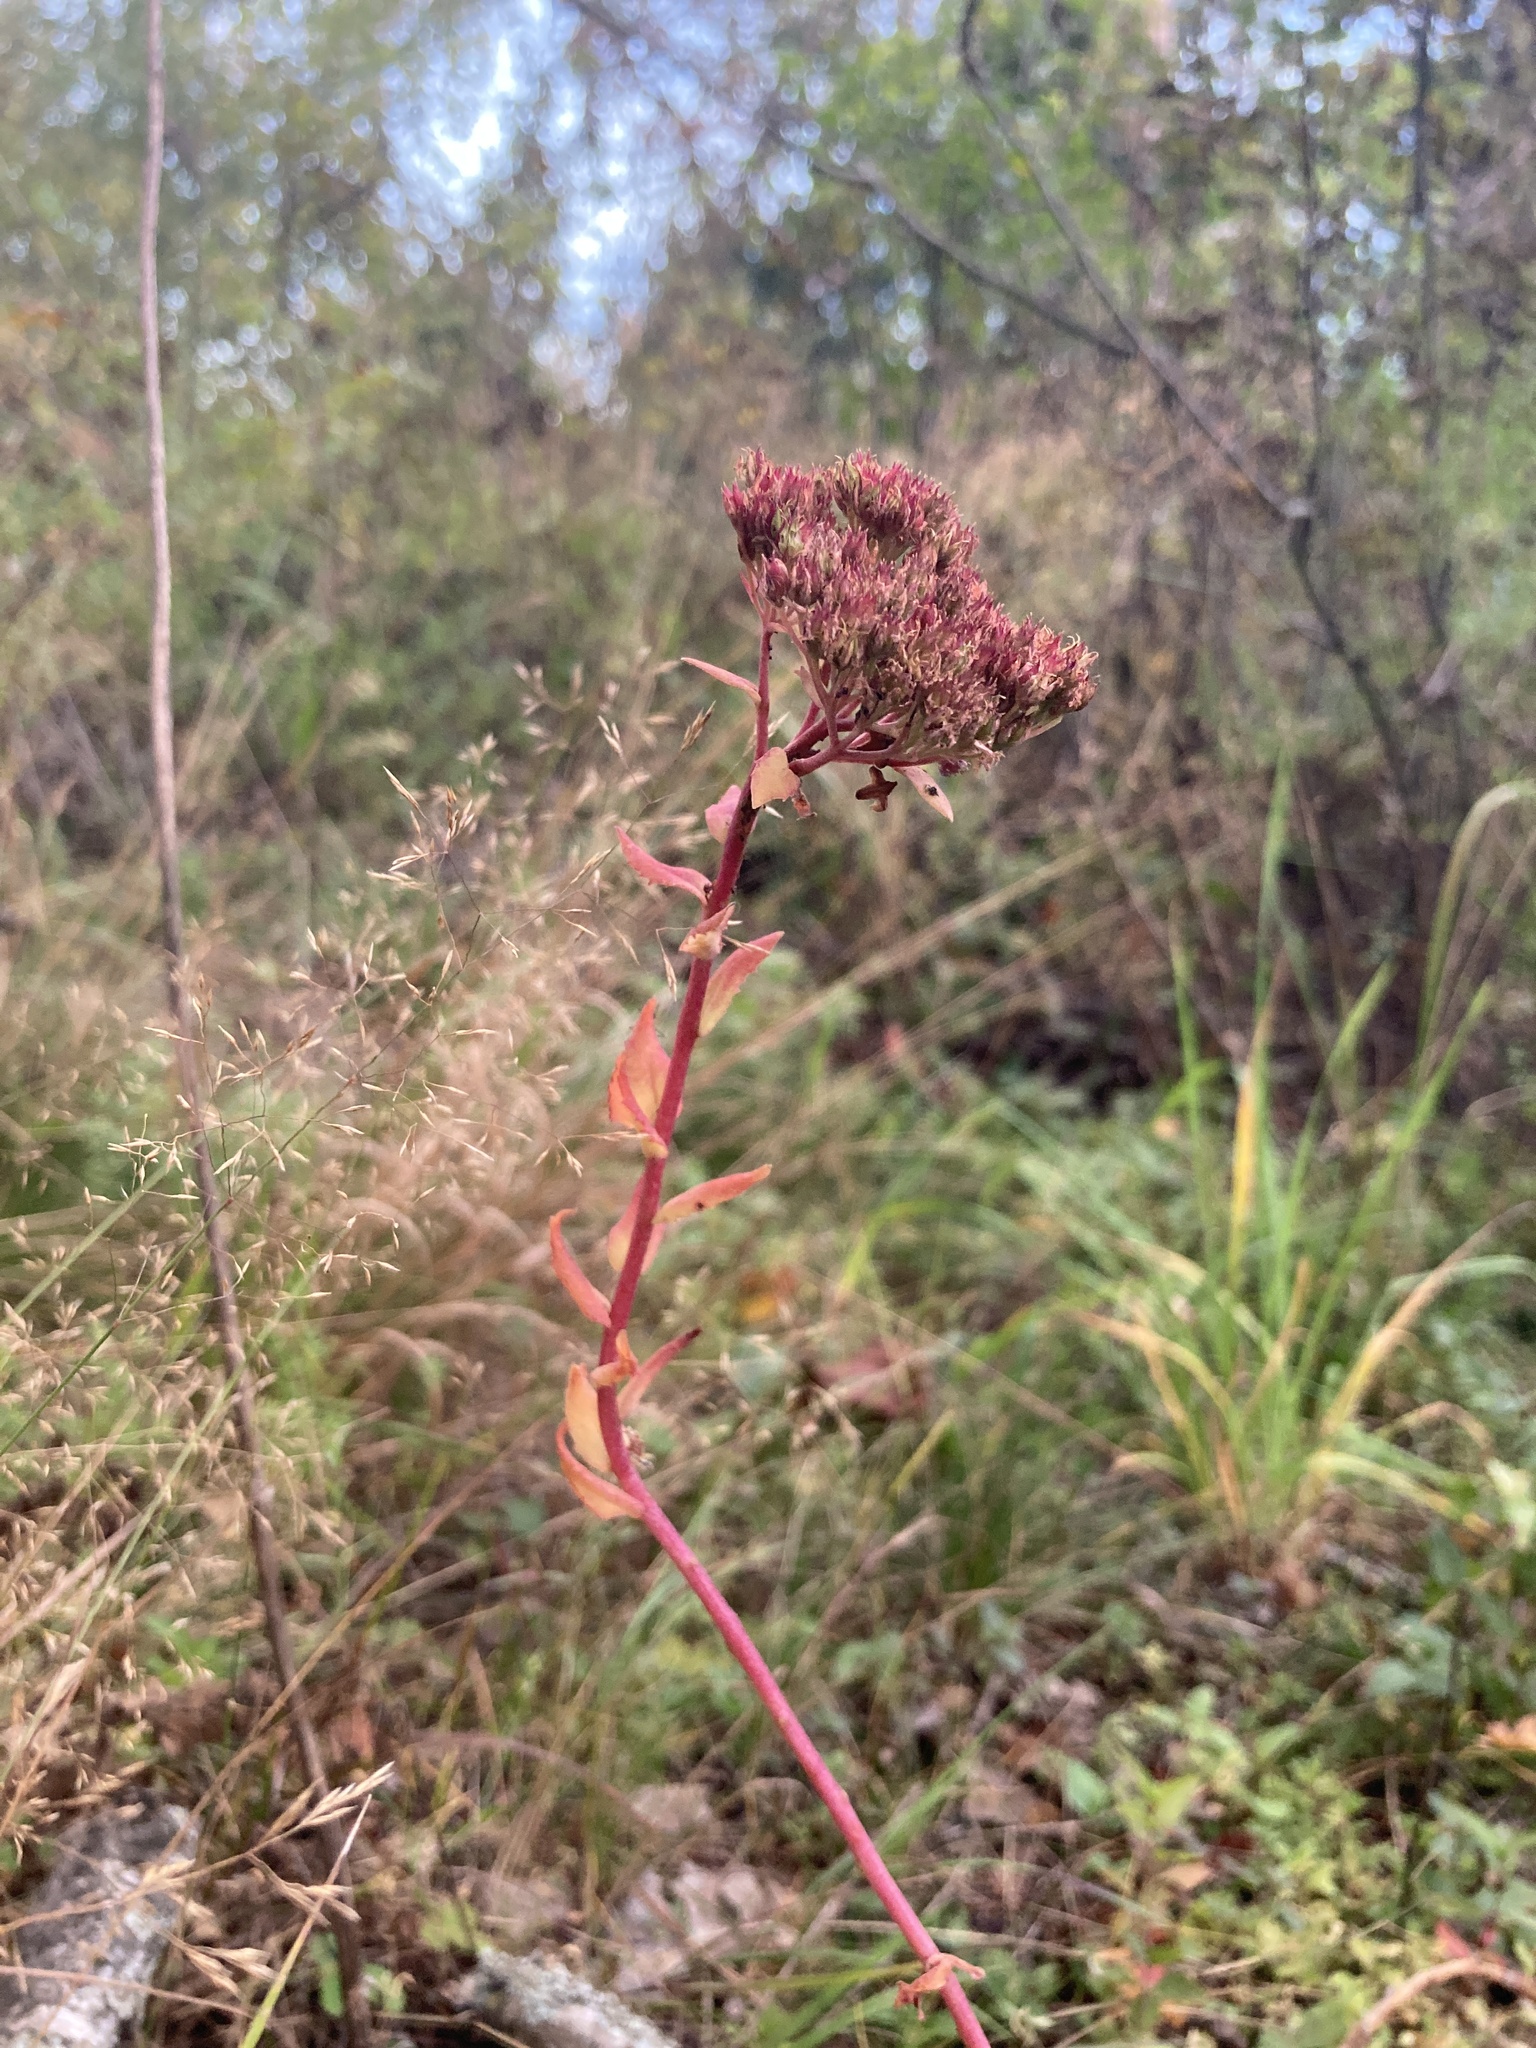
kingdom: Plantae
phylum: Tracheophyta
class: Magnoliopsida
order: Saxifragales
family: Crassulaceae
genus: Hylotelephium
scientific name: Hylotelephium telephium
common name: Live-forever
